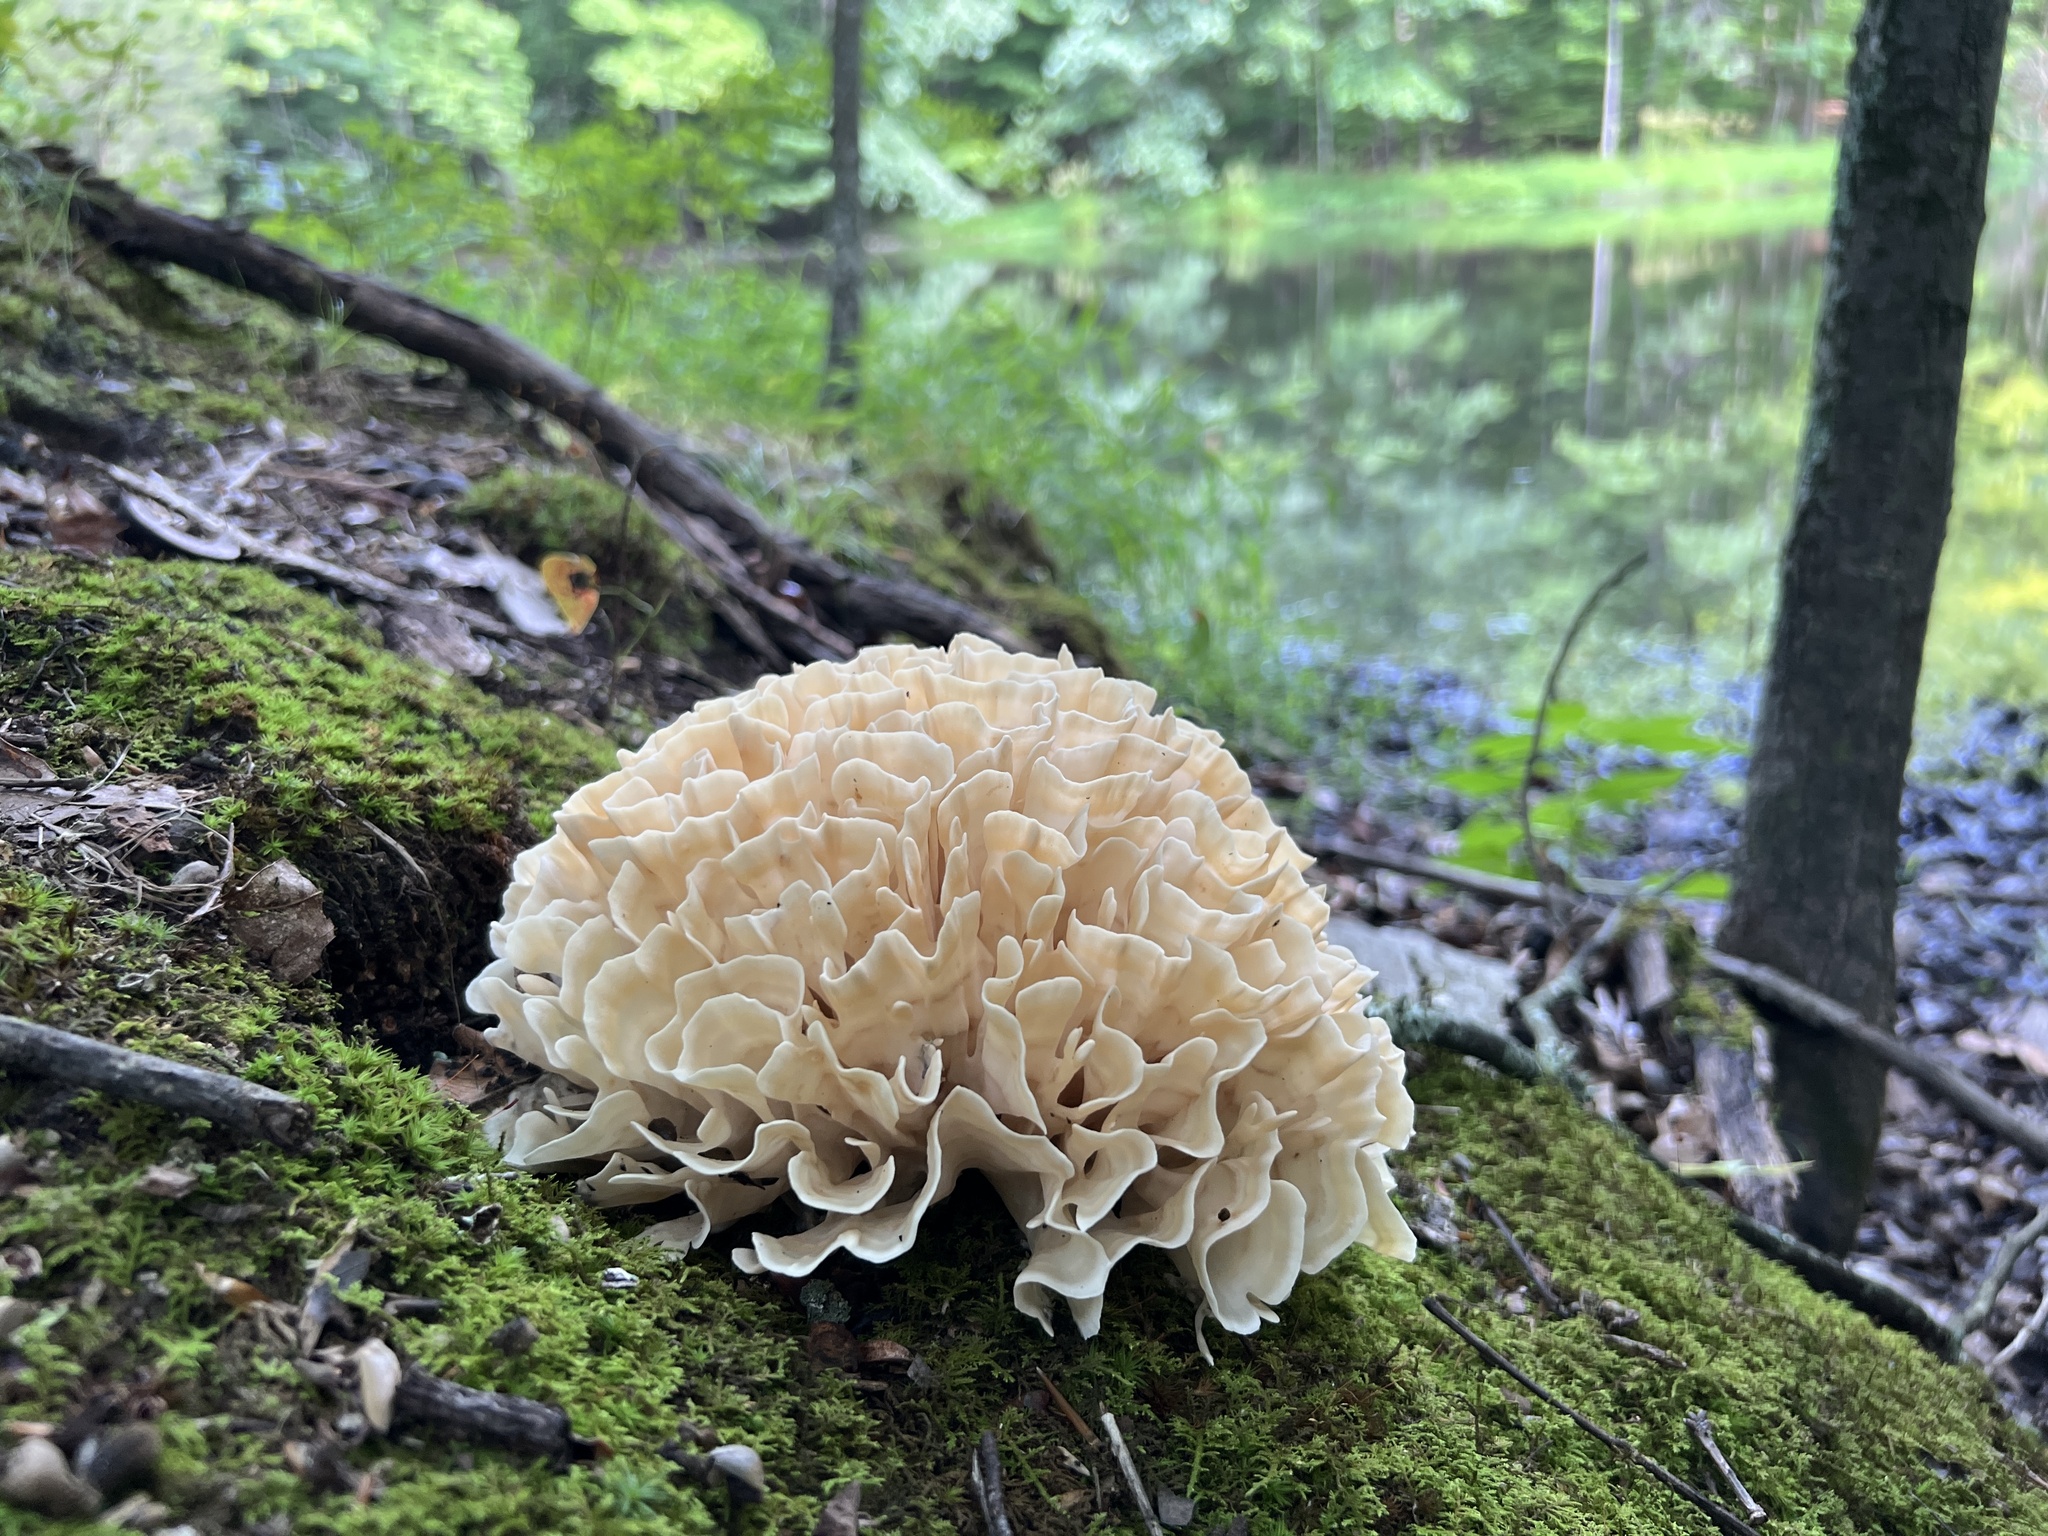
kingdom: Fungi
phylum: Basidiomycota
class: Agaricomycetes
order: Polyporales
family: Sparassidaceae
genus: Sparassis
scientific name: Sparassis spathulata
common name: Eastern cauliflower mushroom
